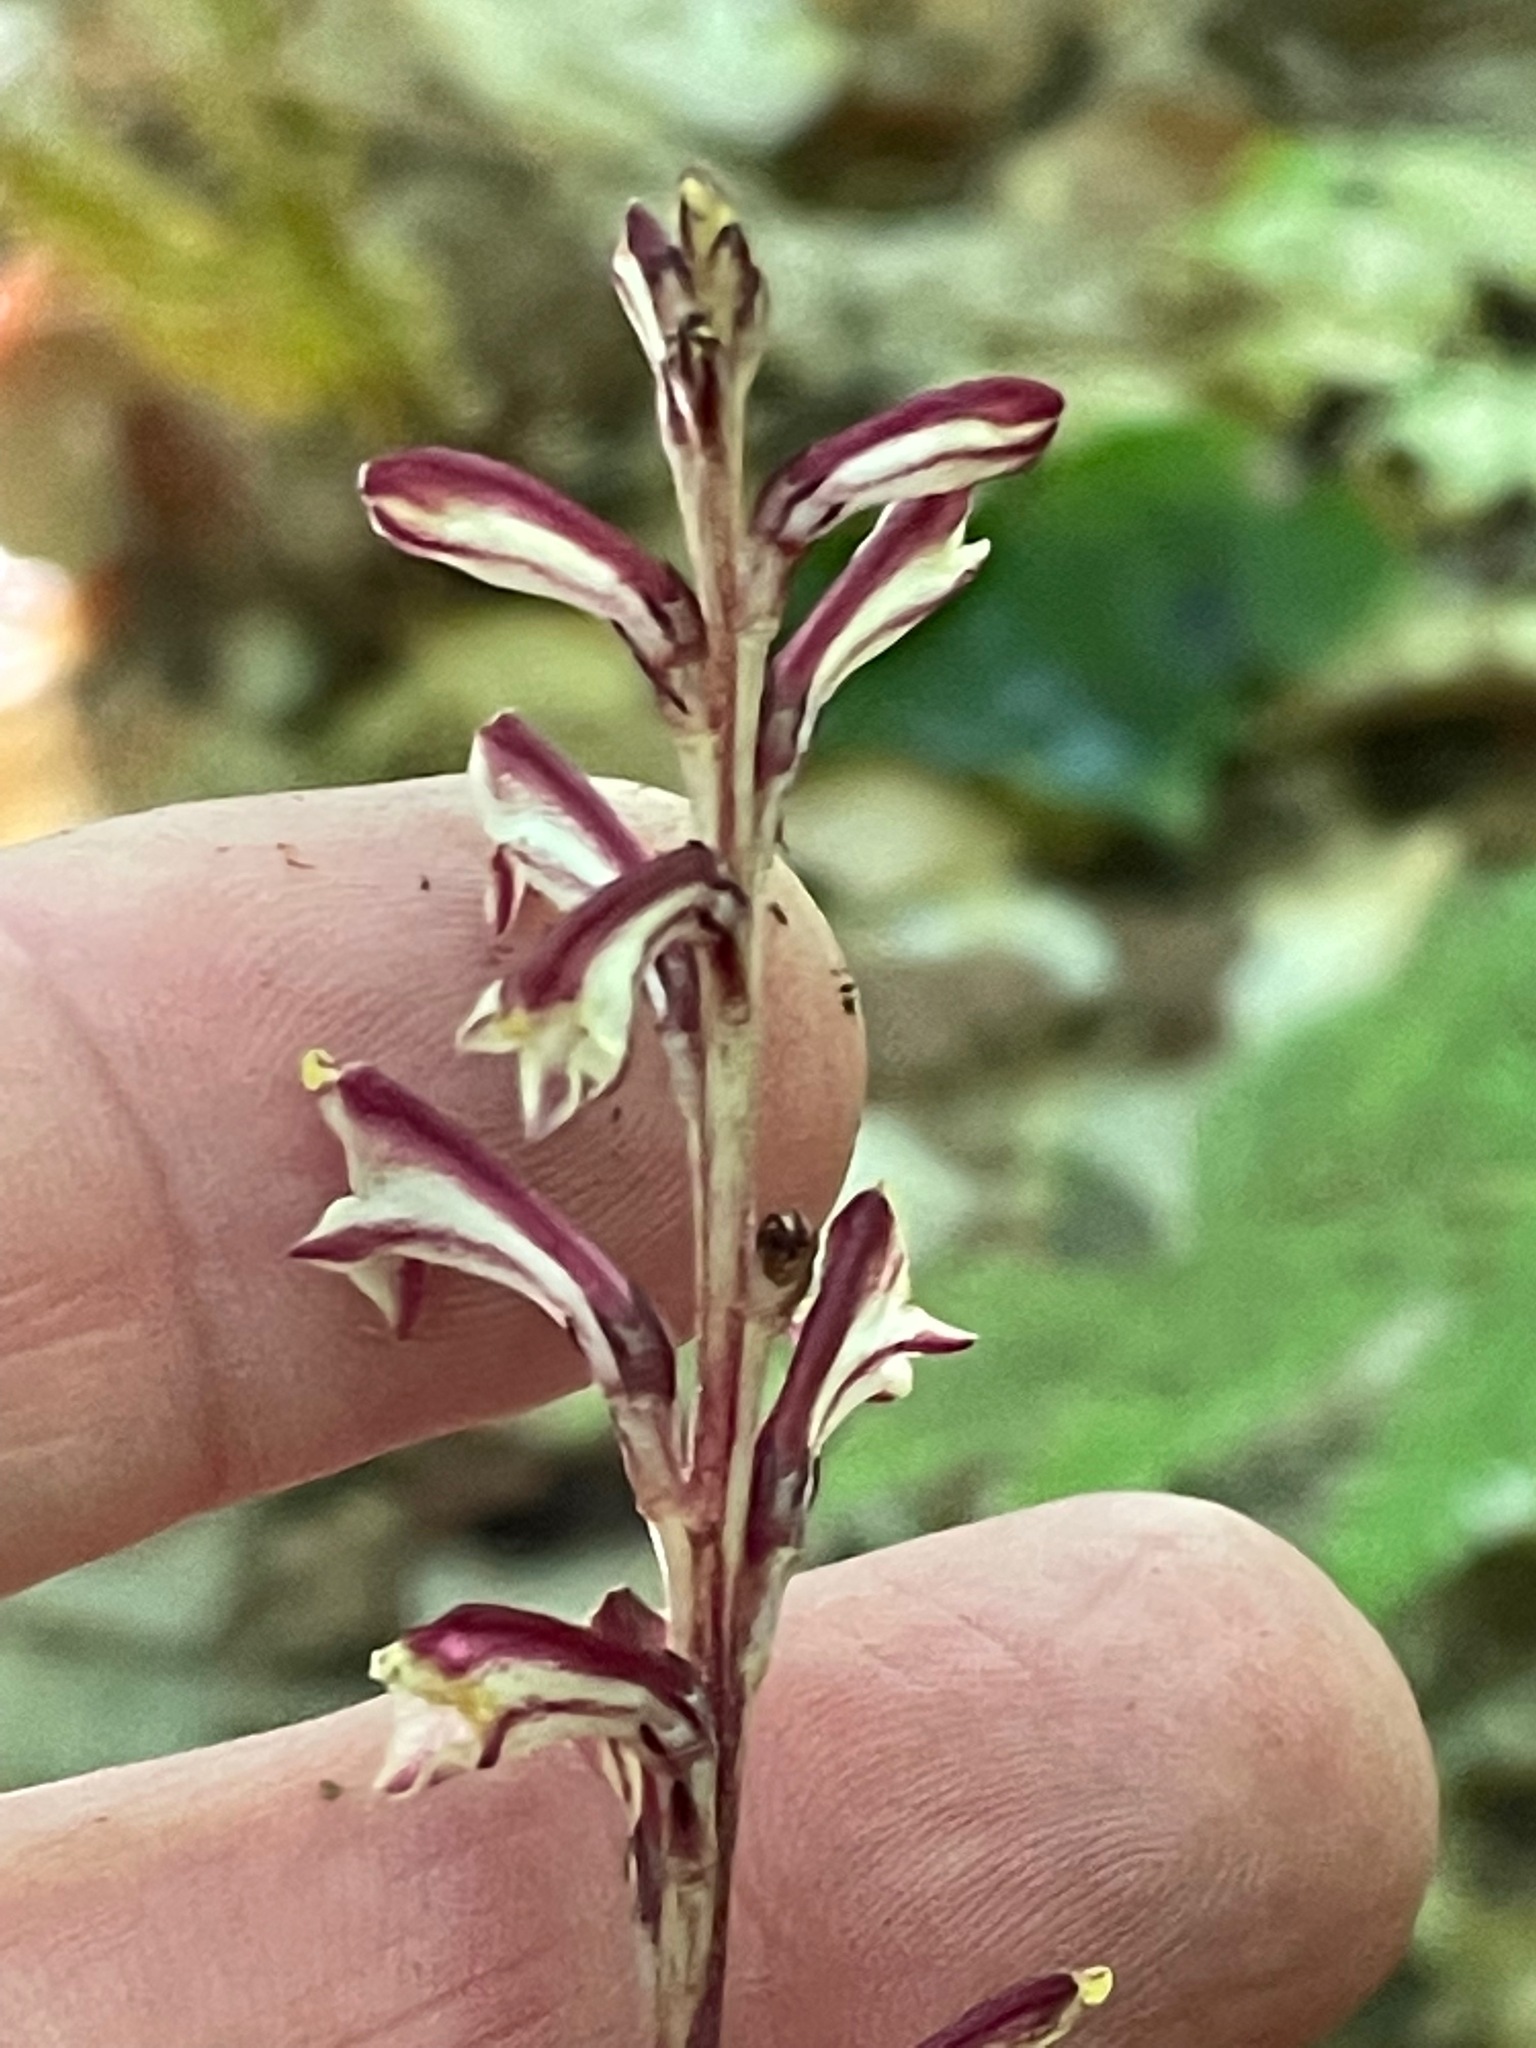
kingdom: Plantae
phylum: Tracheophyta
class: Magnoliopsida
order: Lamiales
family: Orobanchaceae
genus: Epifagus
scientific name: Epifagus virginiana
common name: Beechdrops
